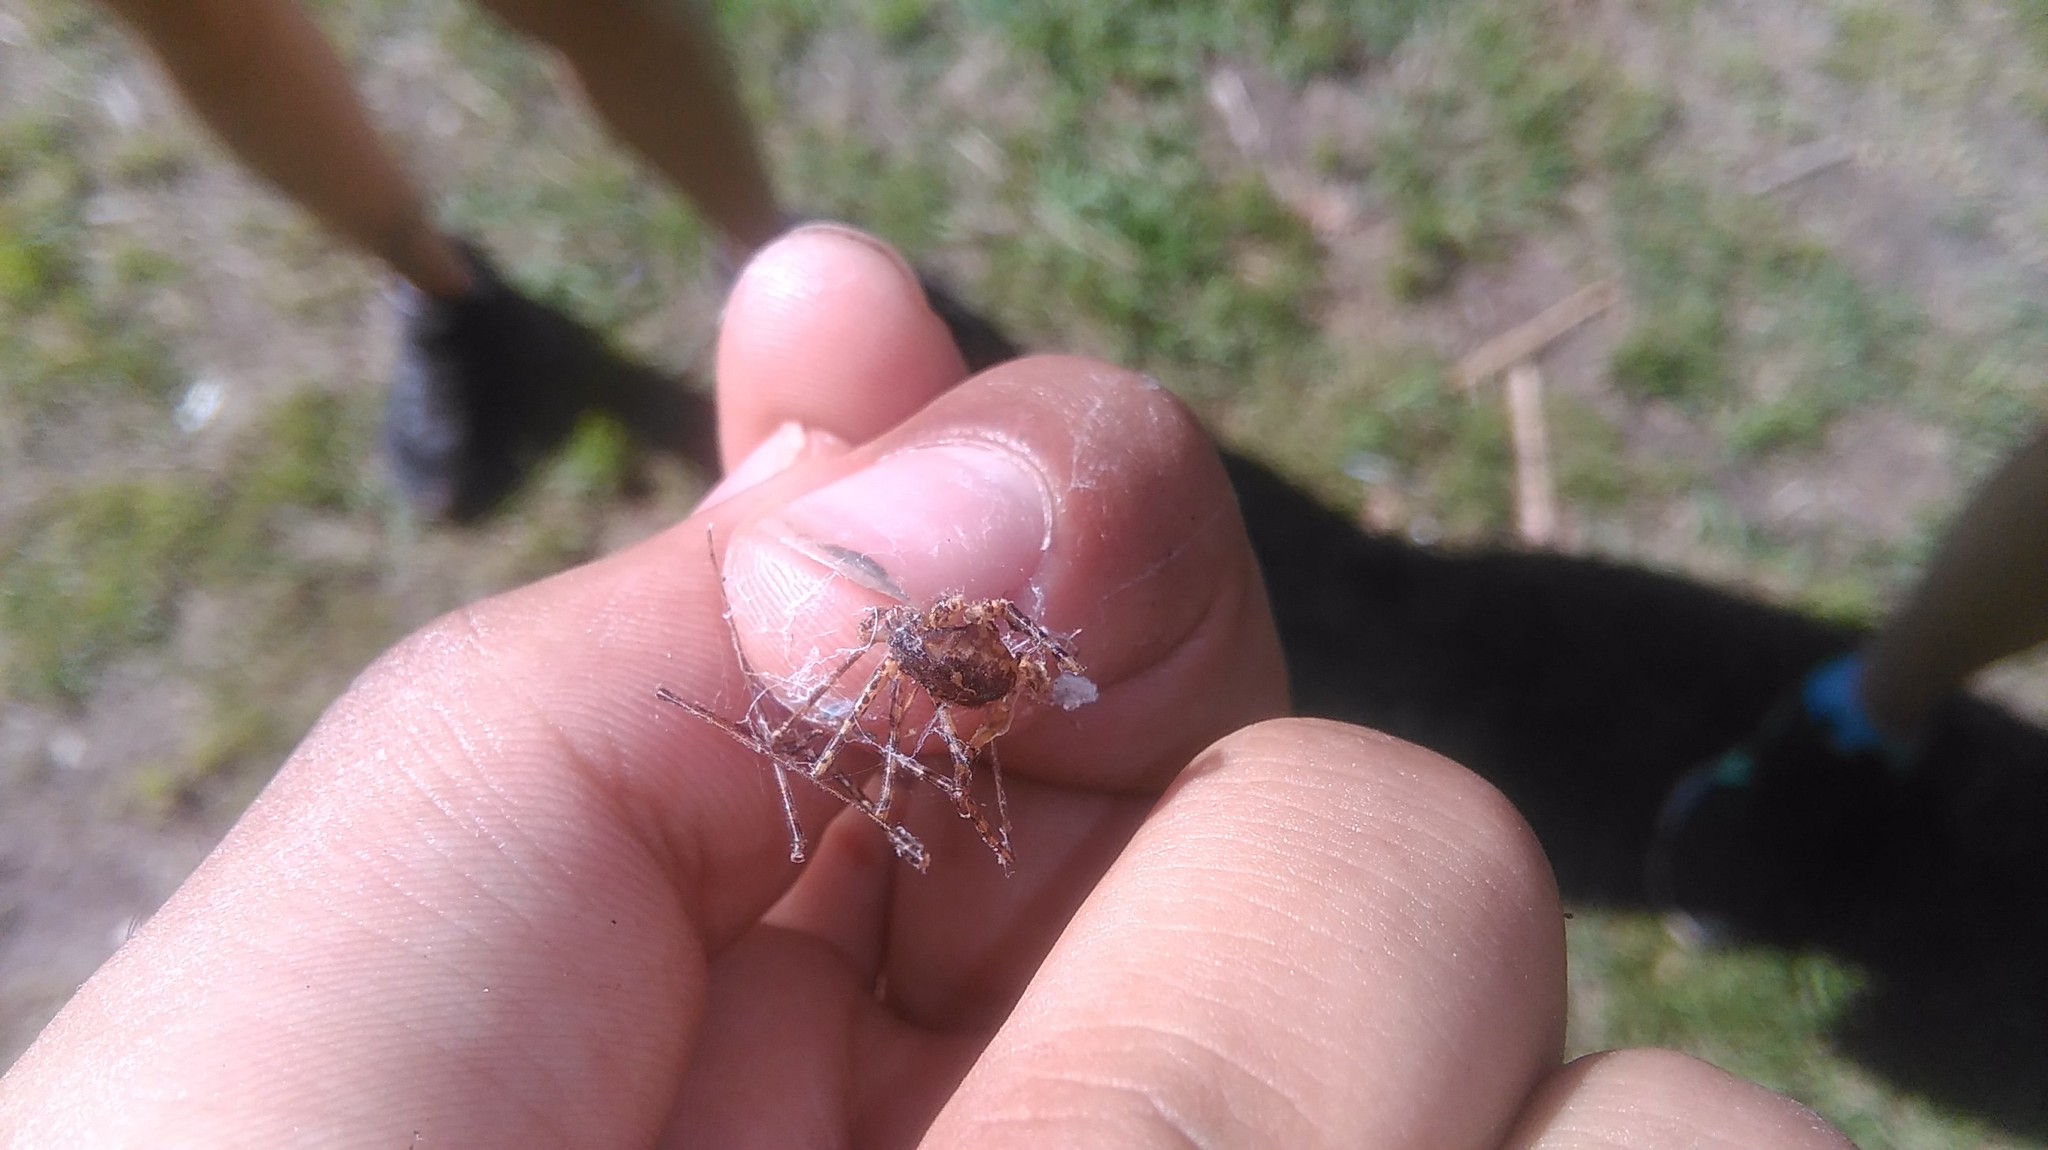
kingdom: Animalia
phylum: Arthropoda
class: Arachnida
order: Araneae
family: Scytodidae
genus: Scytodes
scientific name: Scytodes globula
